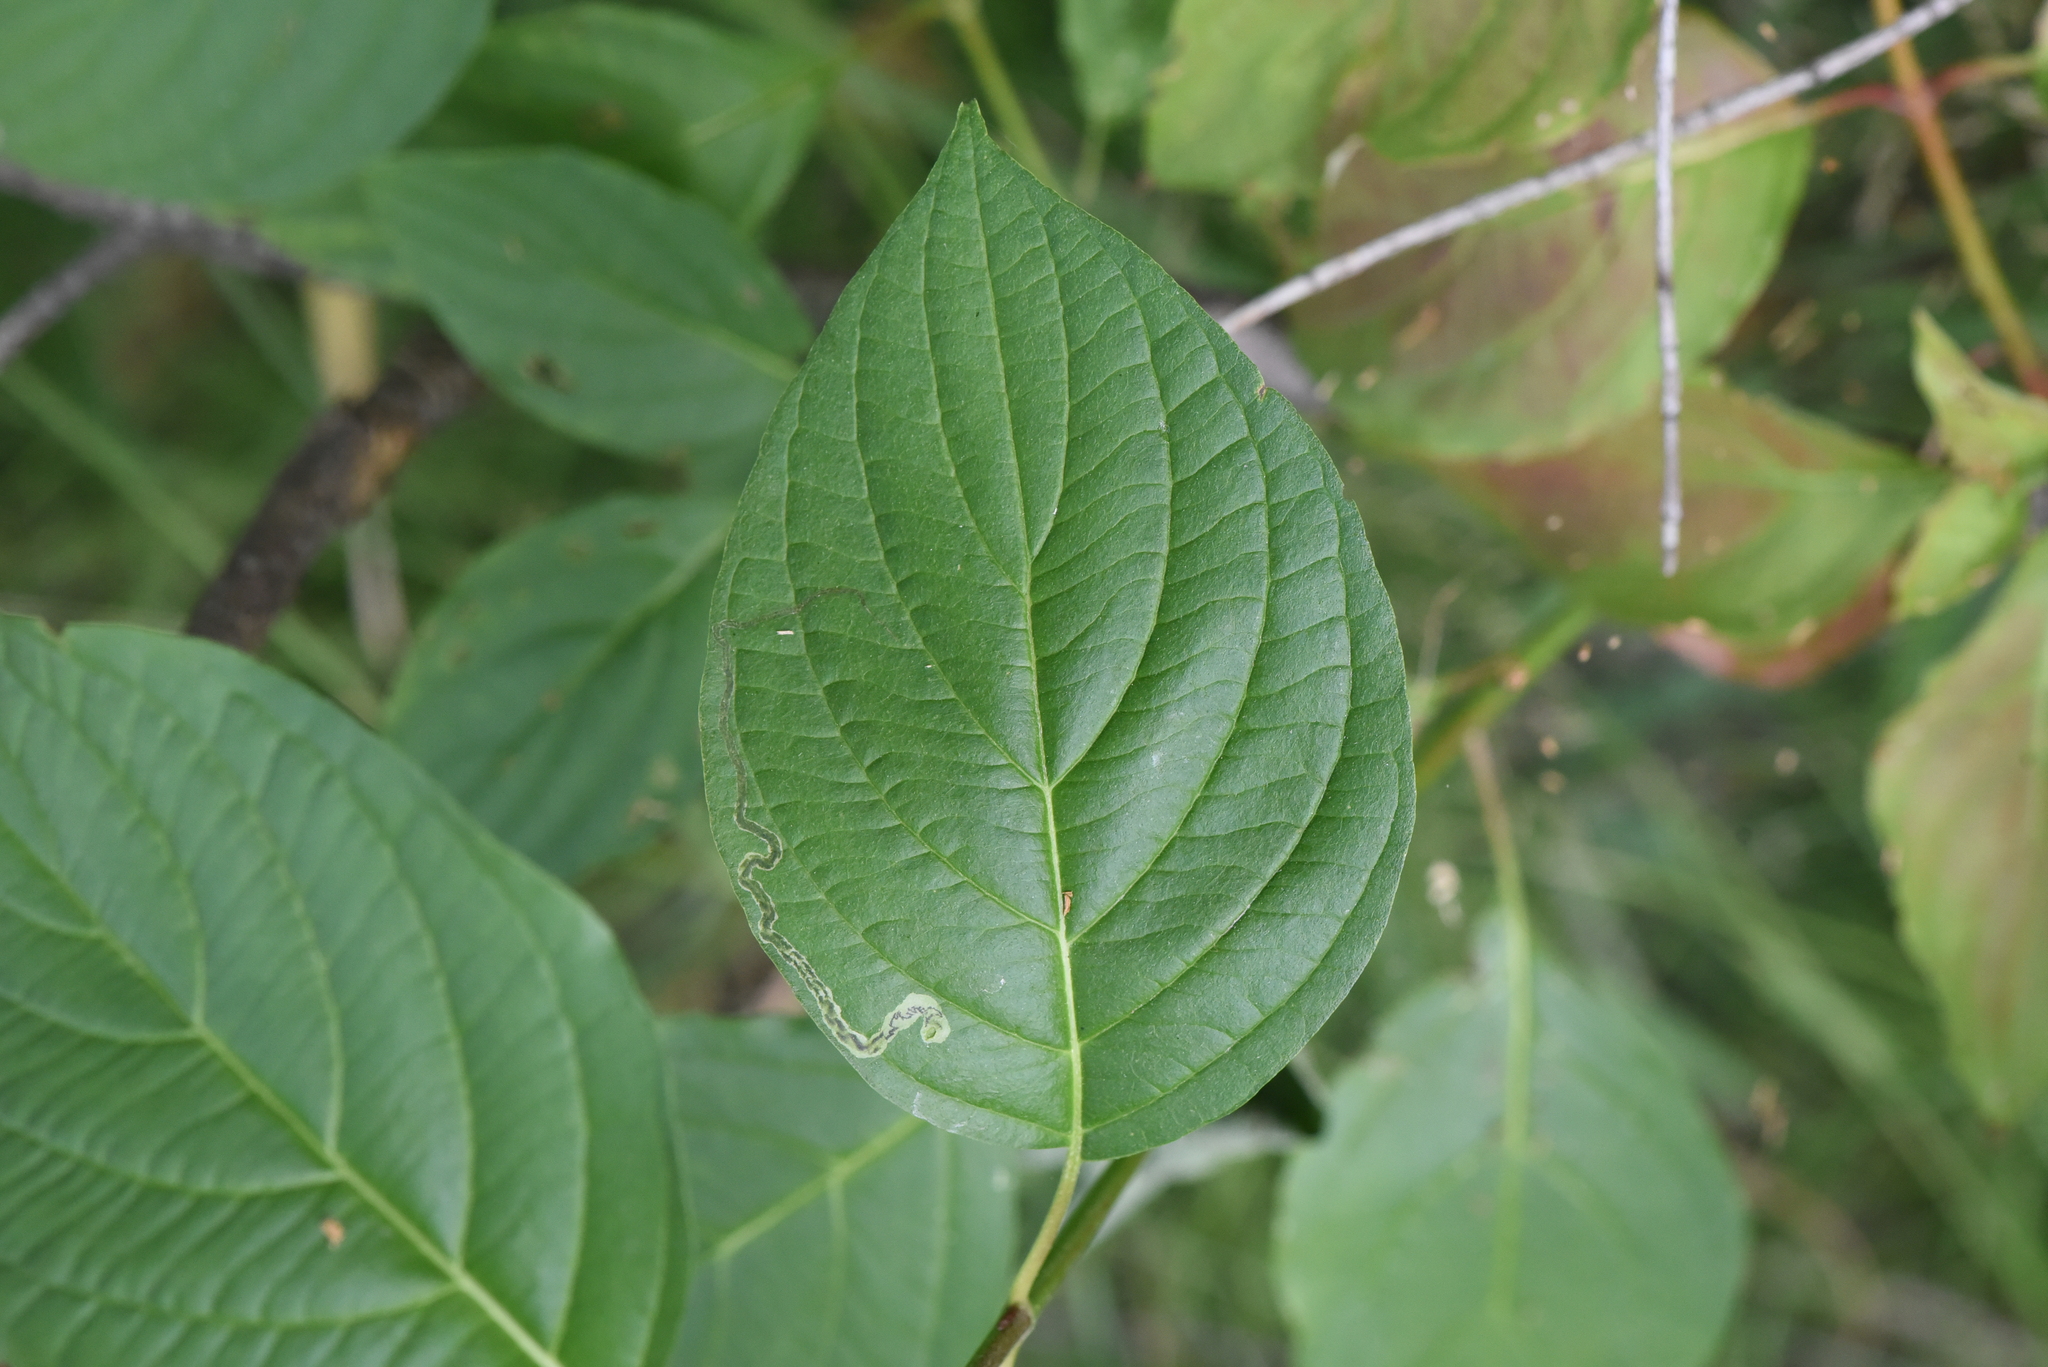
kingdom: Plantae
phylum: Tracheophyta
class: Magnoliopsida
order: Cornales
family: Cornaceae
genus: Cornus
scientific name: Cornus sericea
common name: Red-osier dogwood
